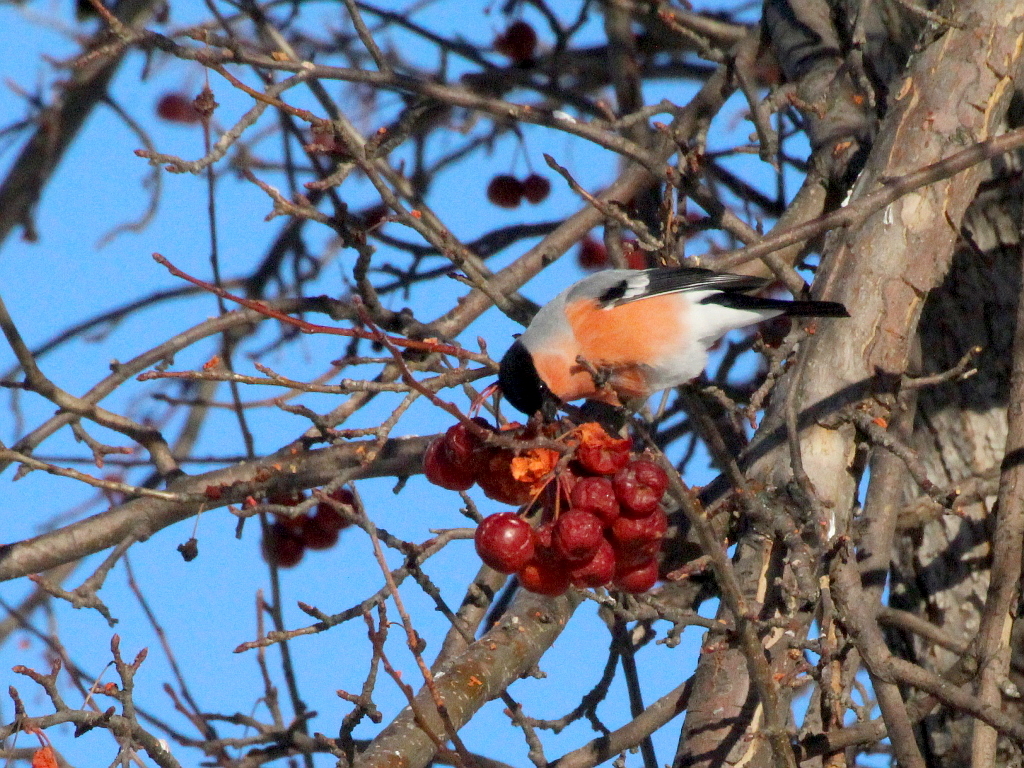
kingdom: Animalia
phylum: Chordata
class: Aves
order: Passeriformes
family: Fringillidae
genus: Pyrrhula
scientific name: Pyrrhula pyrrhula
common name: Eurasian bullfinch
